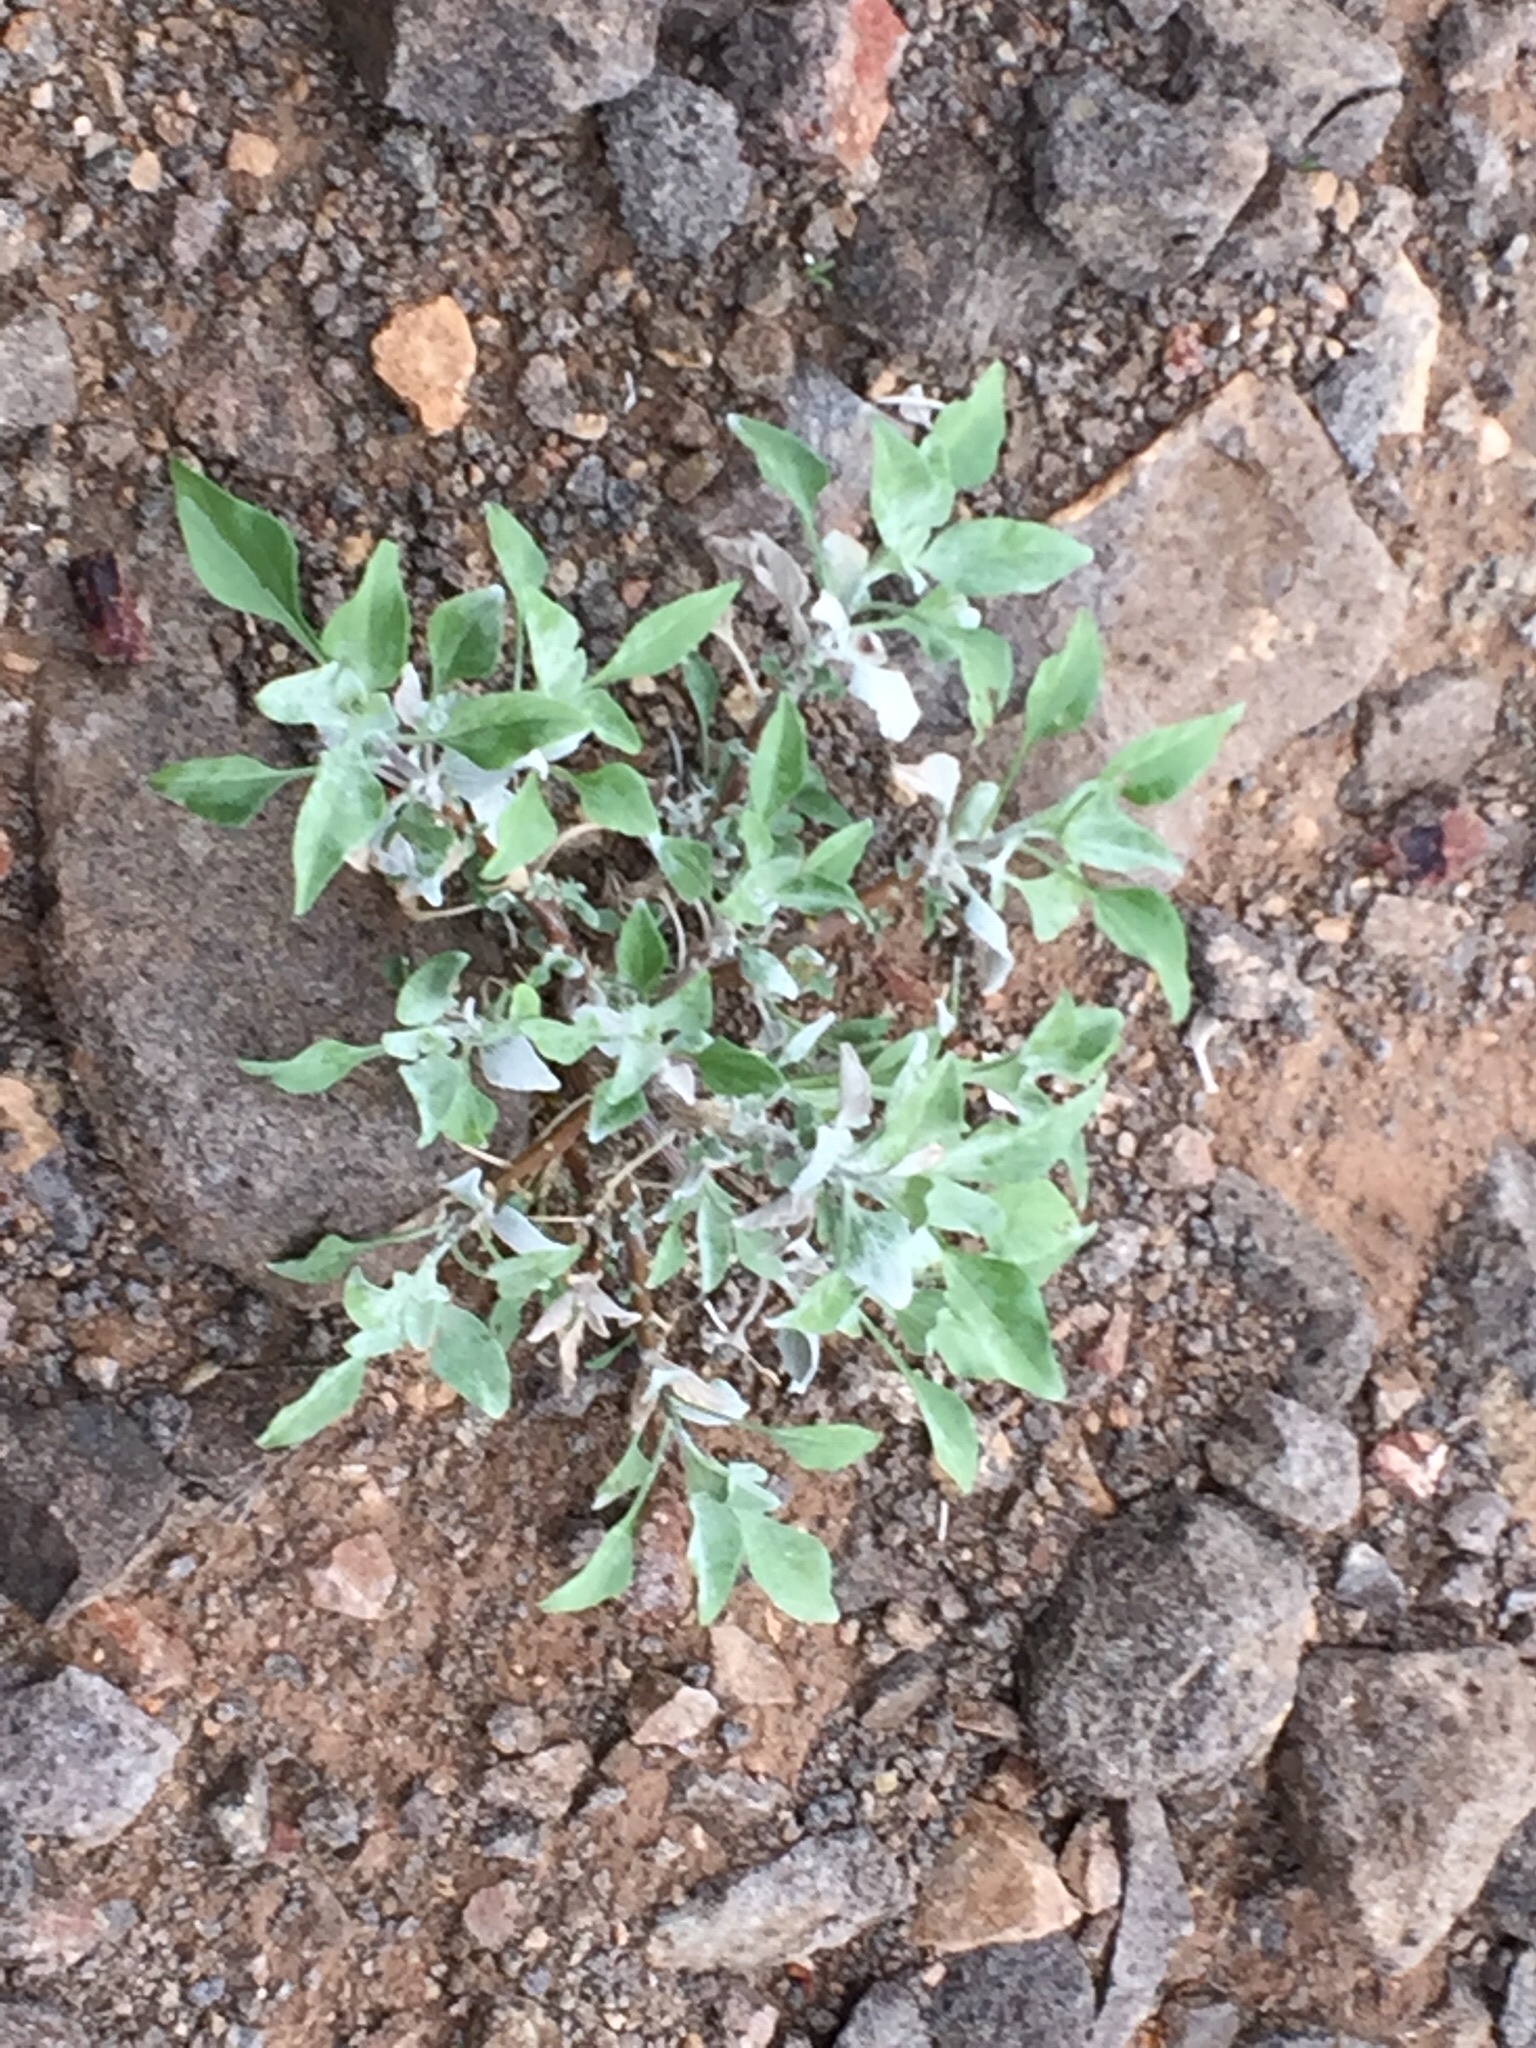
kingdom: Plantae
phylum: Tracheophyta
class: Magnoliopsida
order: Asterales
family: Asteraceae
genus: Encelia
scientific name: Encelia farinosa
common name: Brittlebush
